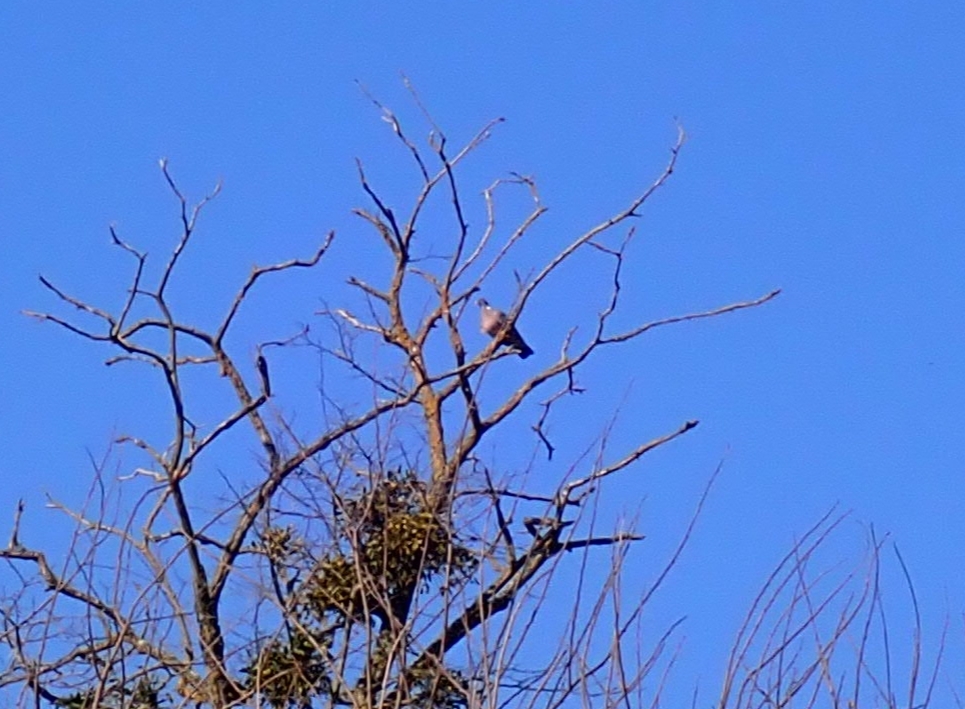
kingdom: Animalia
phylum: Chordata
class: Aves
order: Columbiformes
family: Columbidae
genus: Columba
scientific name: Columba palumbus
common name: Common wood pigeon
